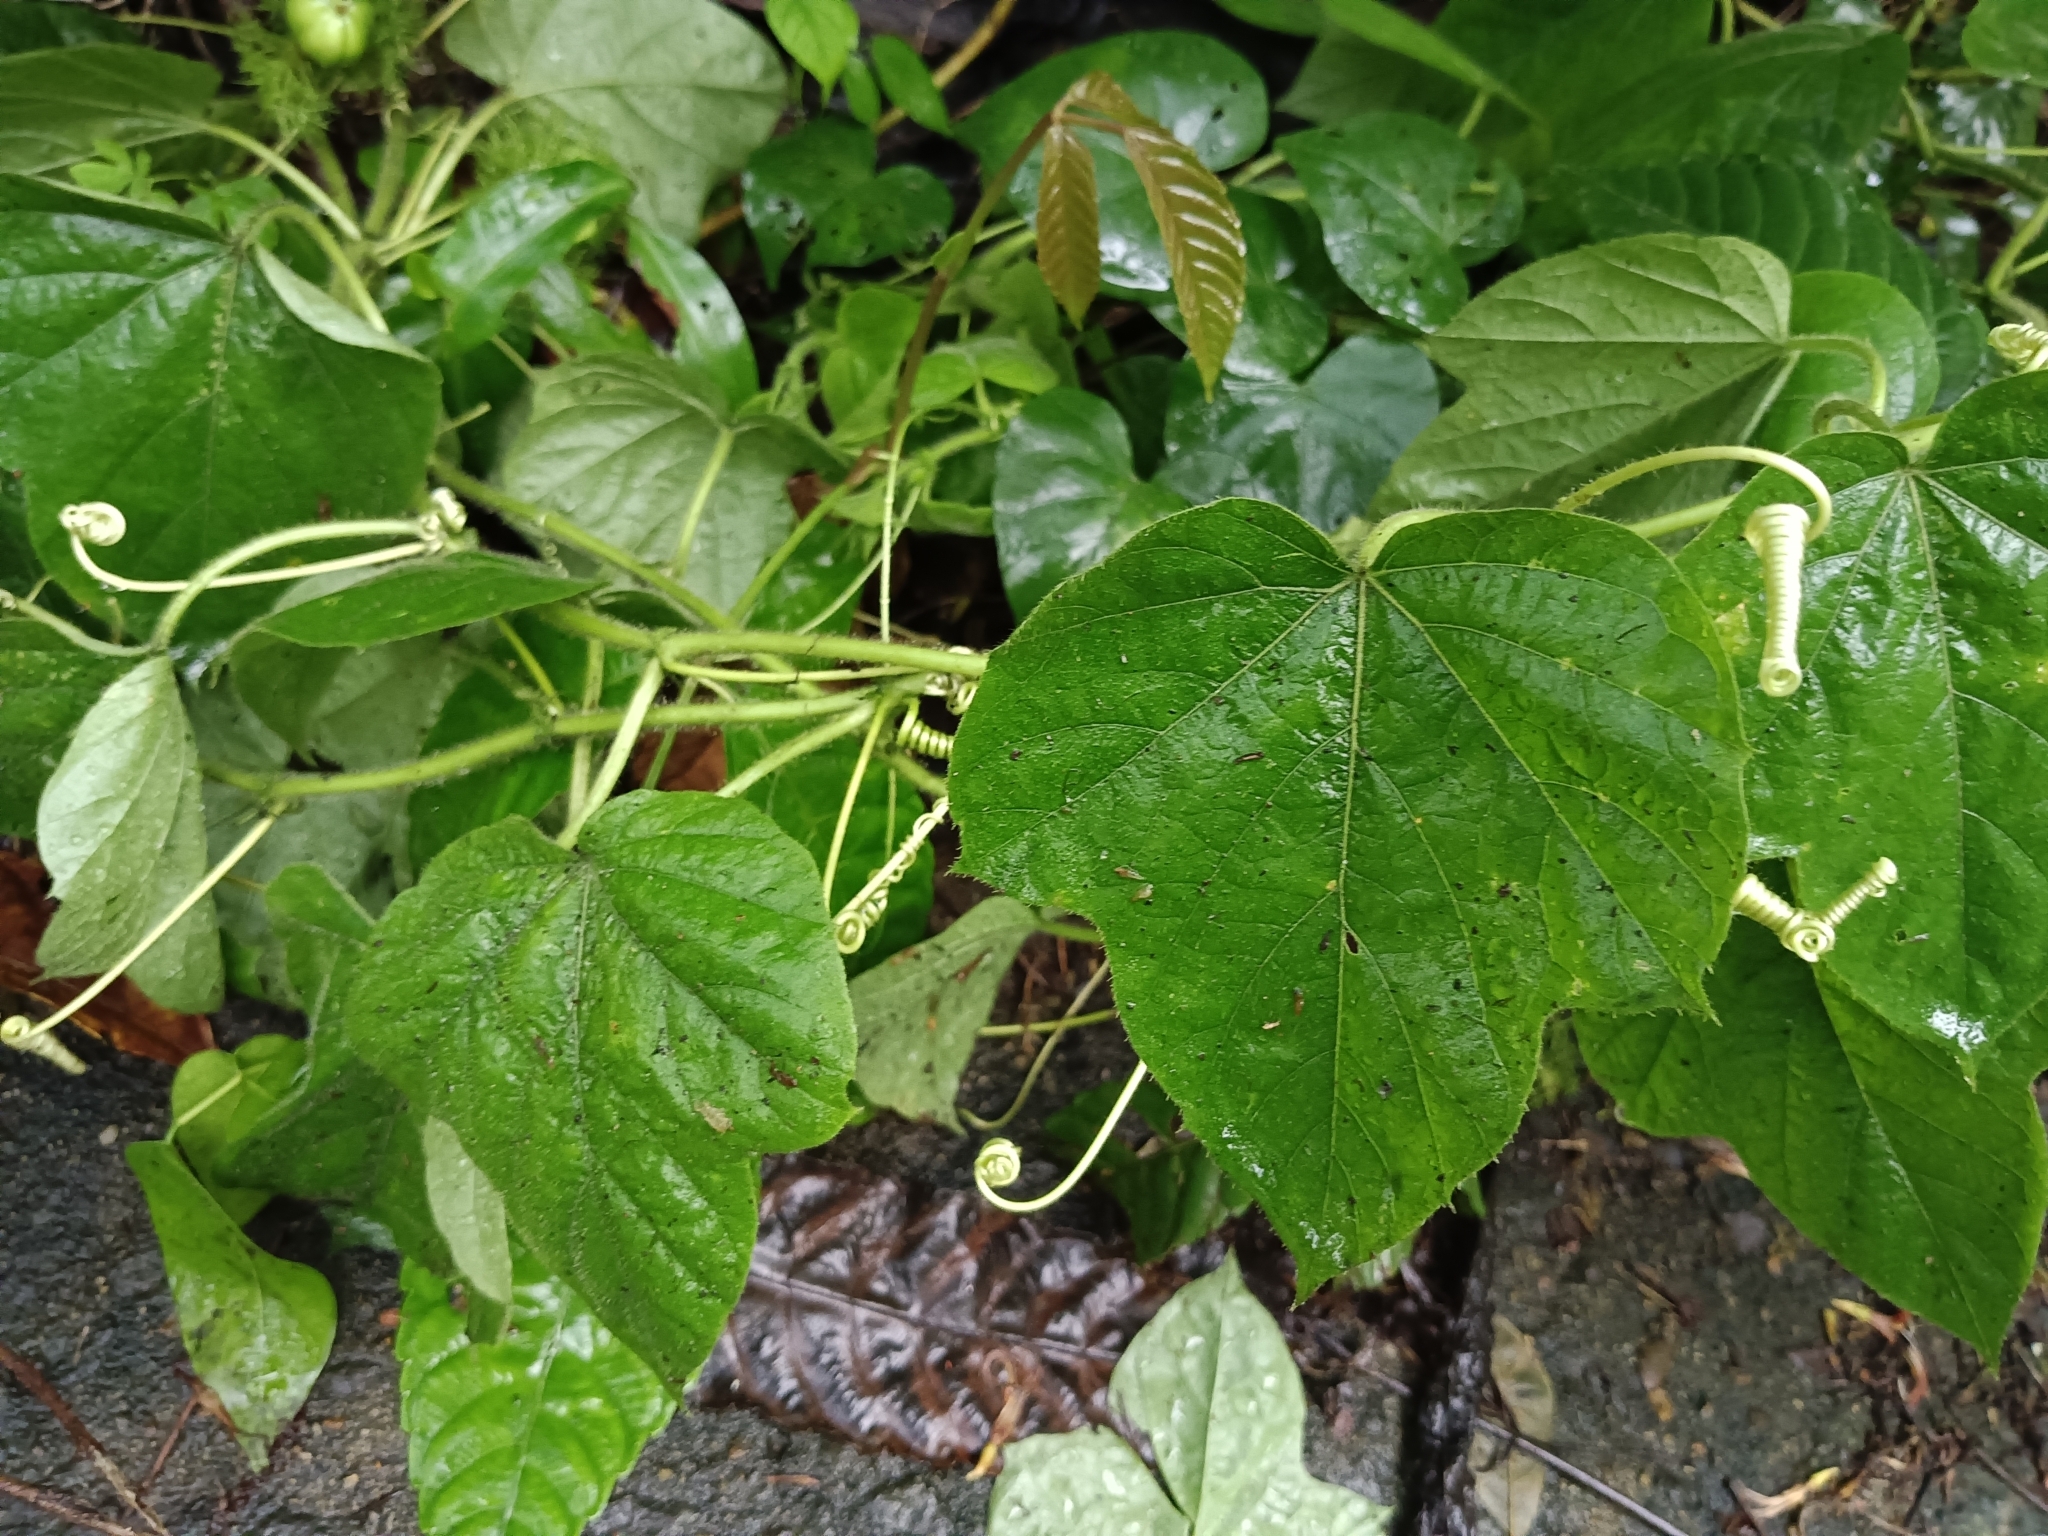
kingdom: Plantae
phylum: Tracheophyta
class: Magnoliopsida
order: Malpighiales
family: Passifloraceae
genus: Passiflora
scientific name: Passiflora vesicaria
